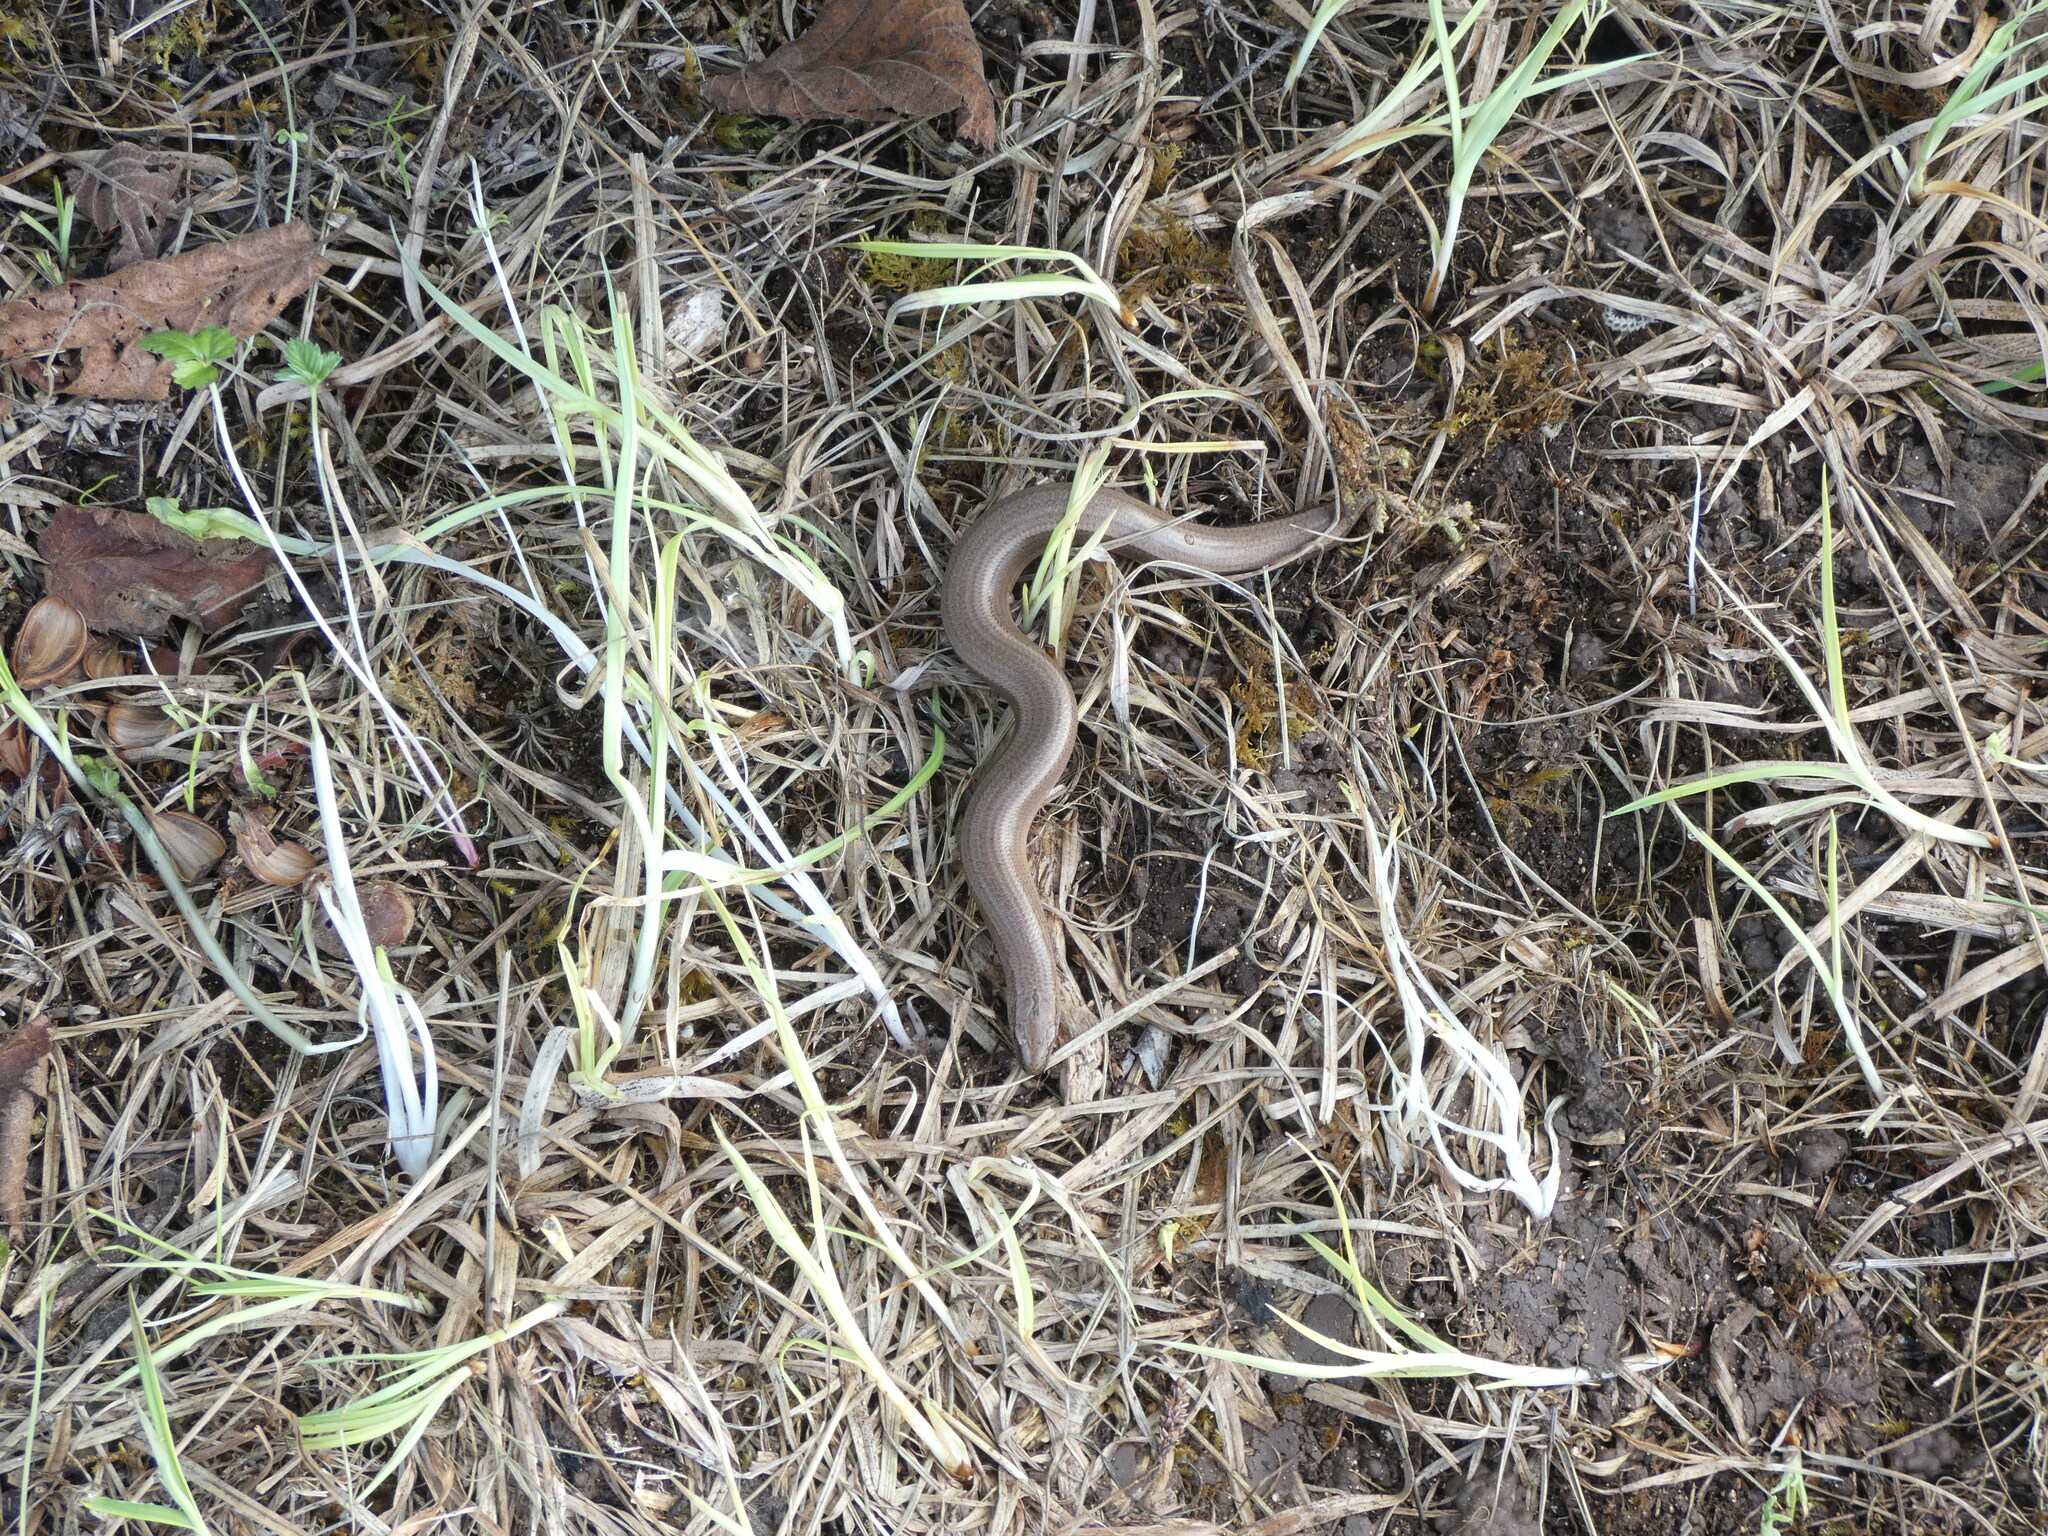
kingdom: Animalia
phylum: Chordata
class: Squamata
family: Anguidae
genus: Anguis
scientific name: Anguis fragilis
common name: Slow worm
